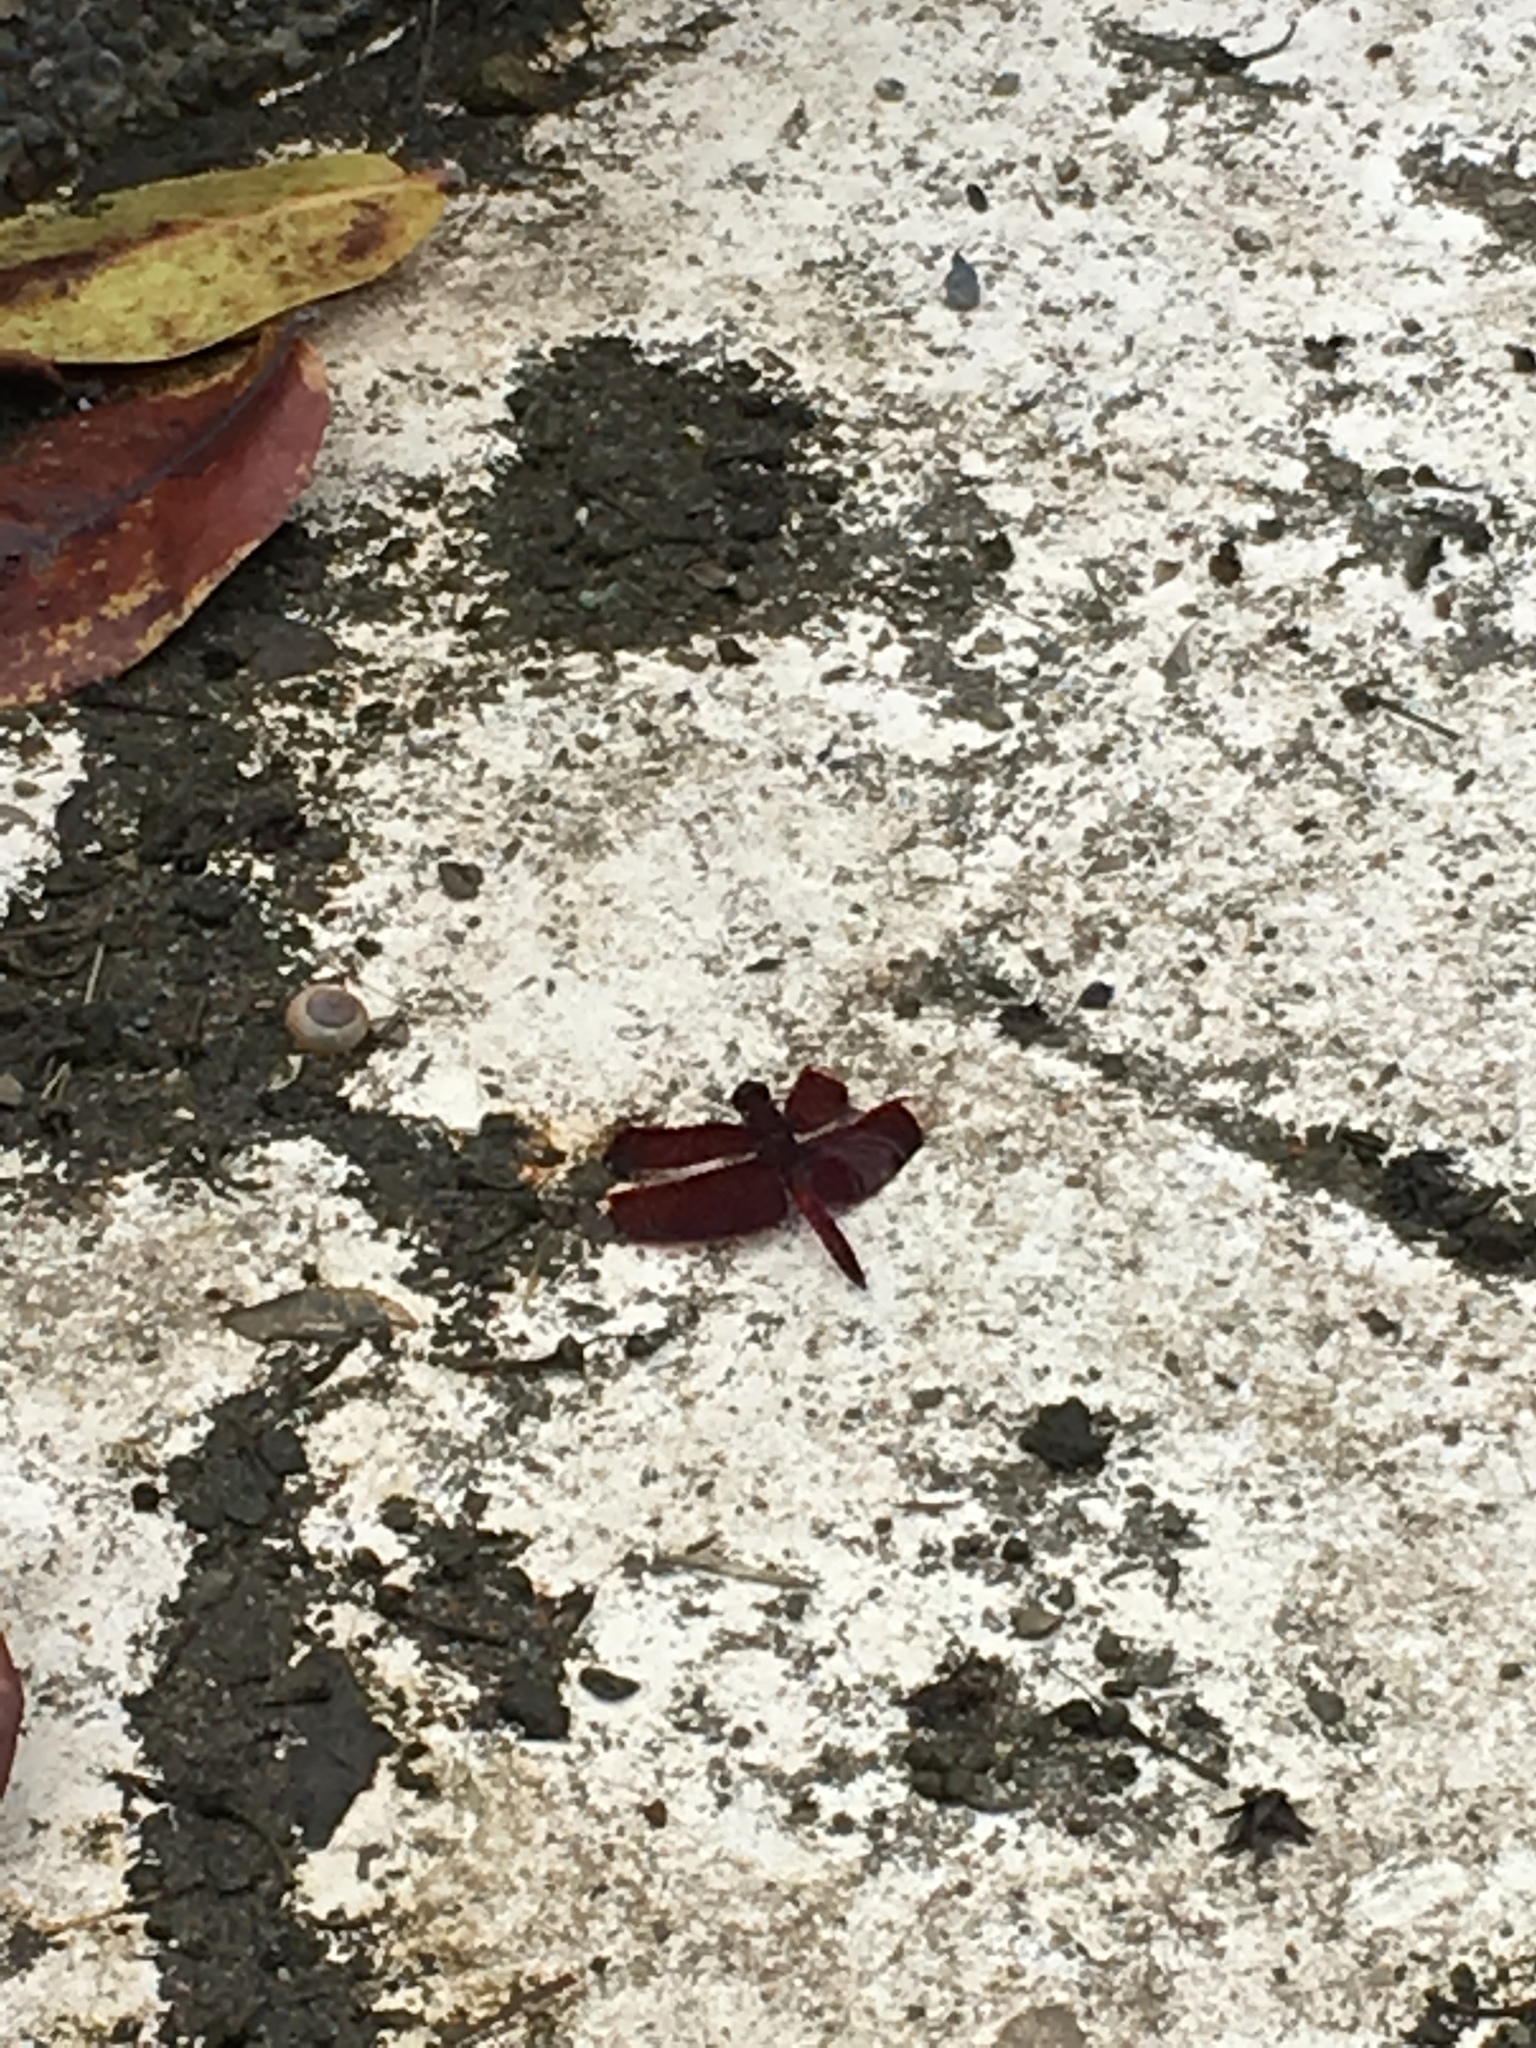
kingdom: Animalia
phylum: Arthropoda
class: Insecta
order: Odonata
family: Libellulidae
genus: Neurothemis
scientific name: Neurothemis taiwanensis
